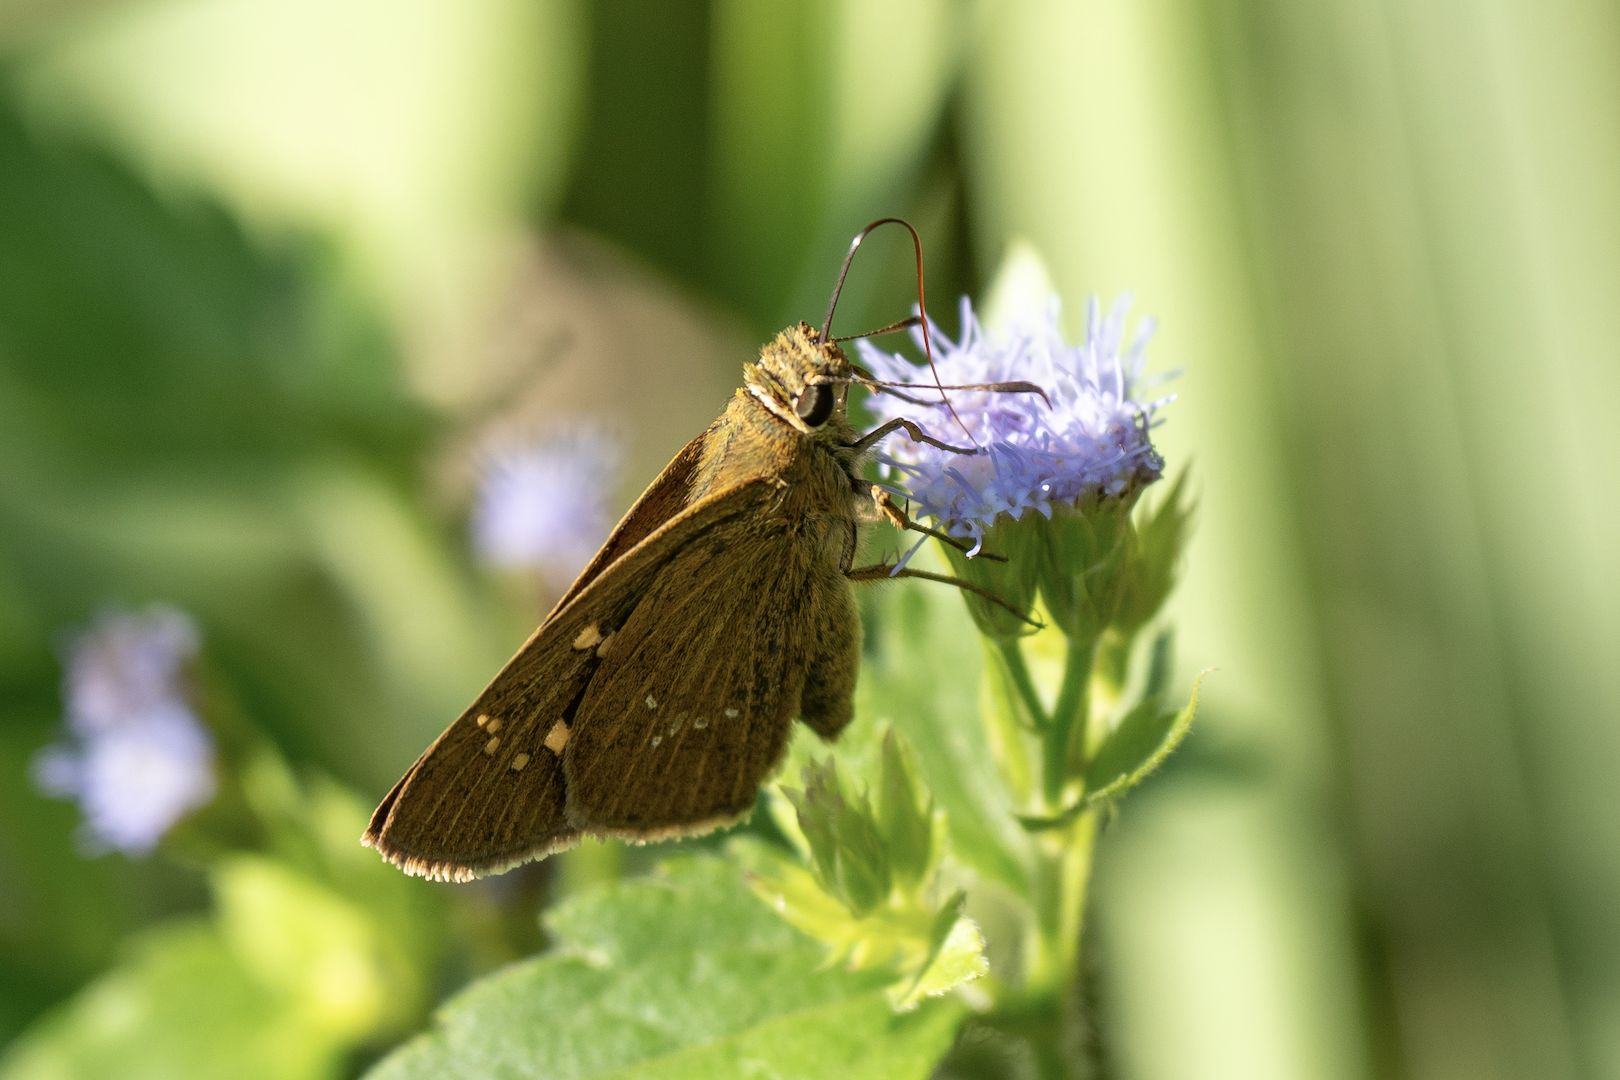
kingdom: Animalia
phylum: Arthropoda
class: Insecta
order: Lepidoptera
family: Hesperiidae
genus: Polytremis
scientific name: Polytremis lubricans
